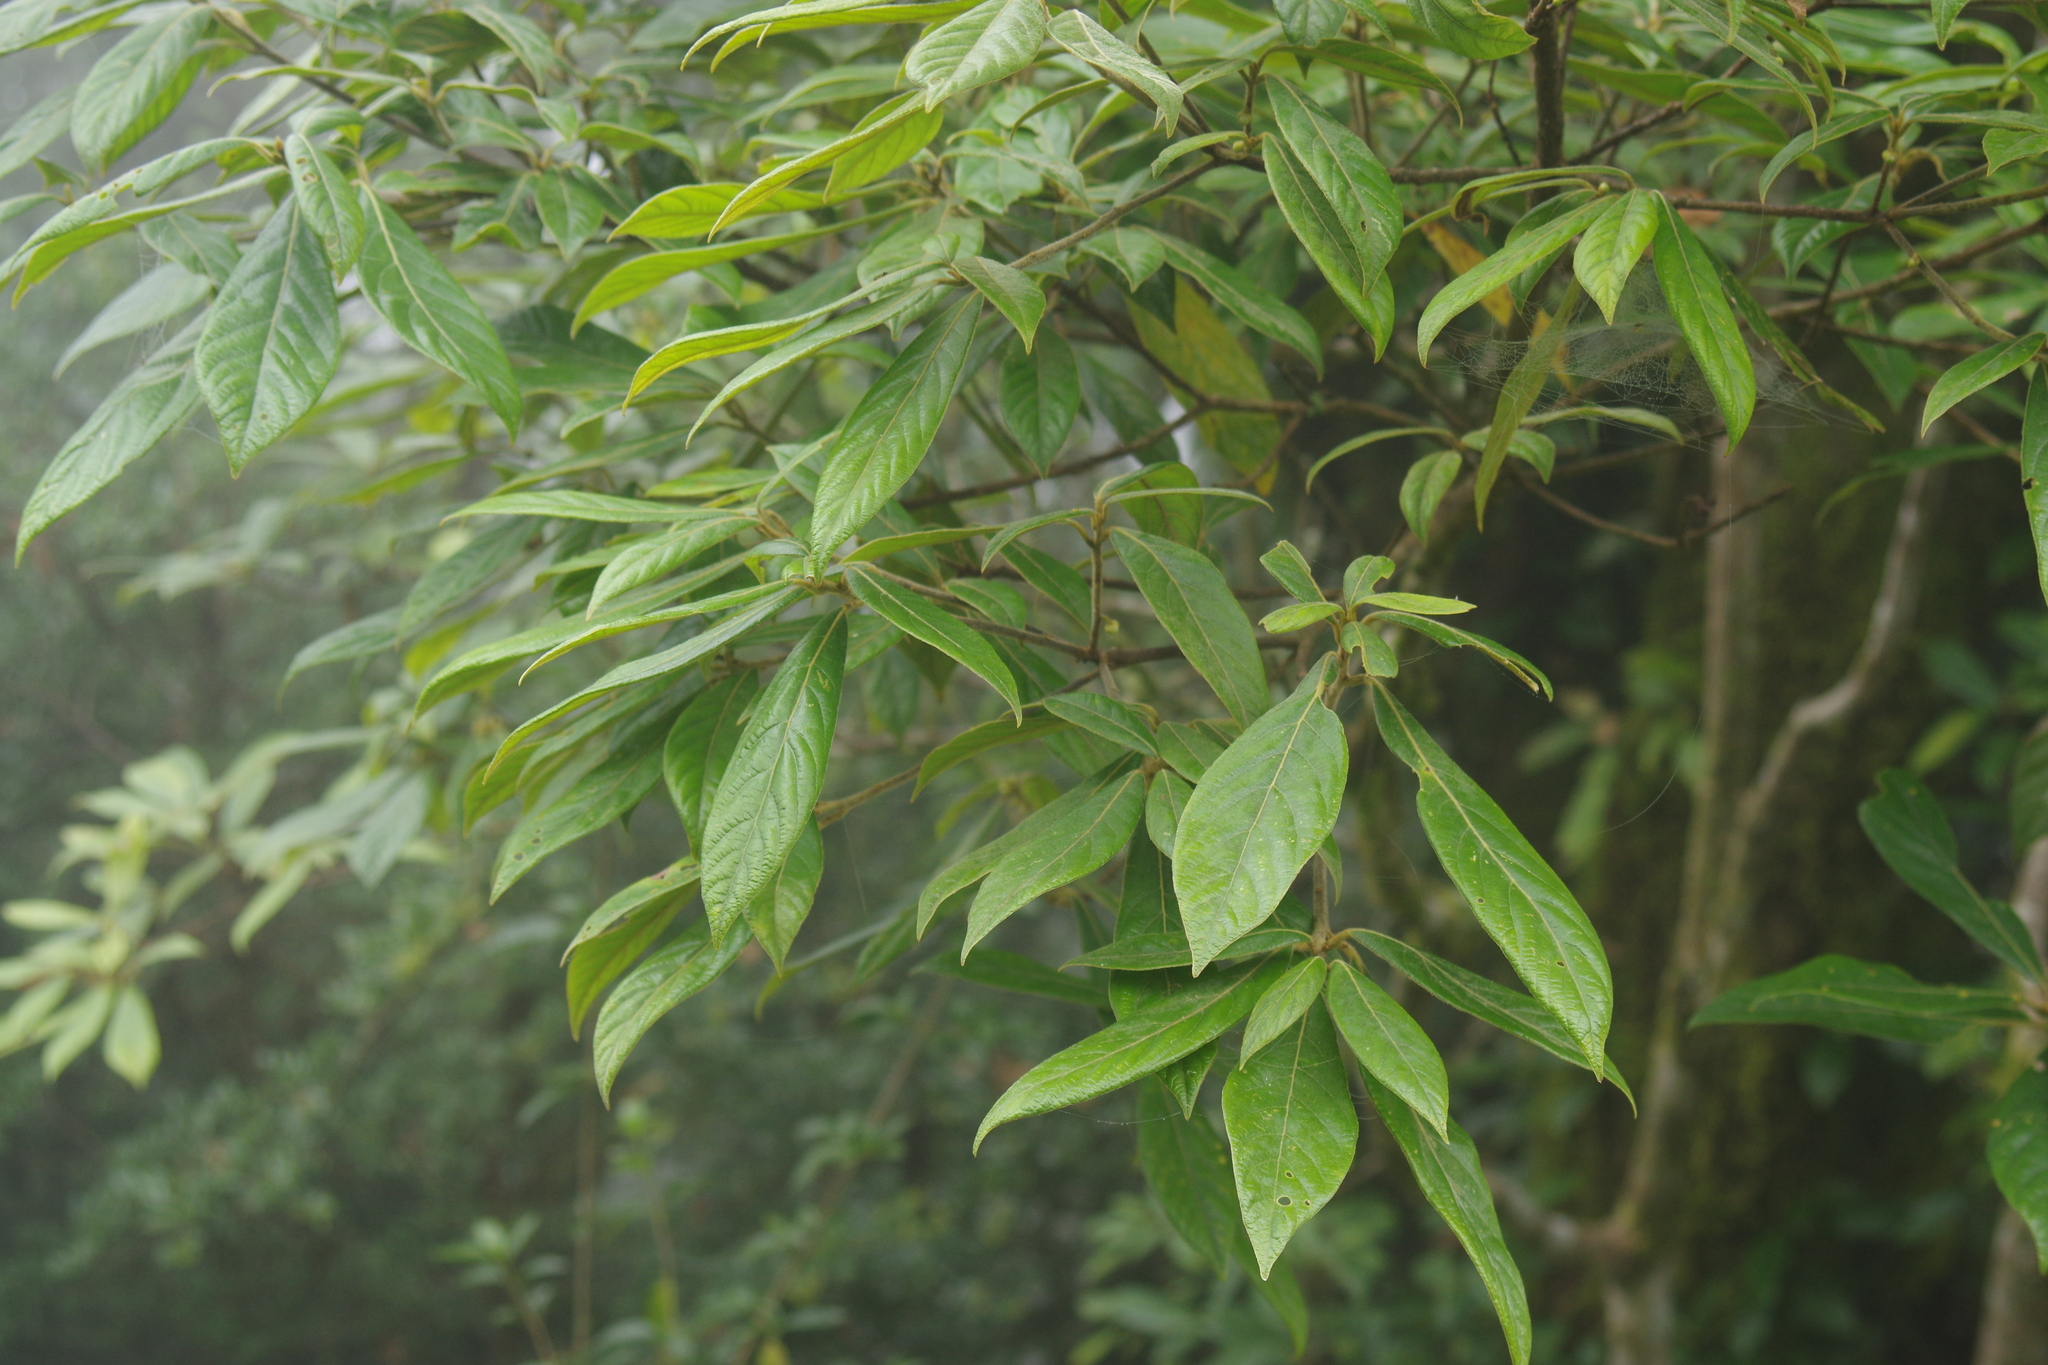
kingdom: Plantae
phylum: Tracheophyta
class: Magnoliopsida
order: Laurales
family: Lauraceae
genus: Actinodaphne
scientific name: Actinodaphne mushaensis
